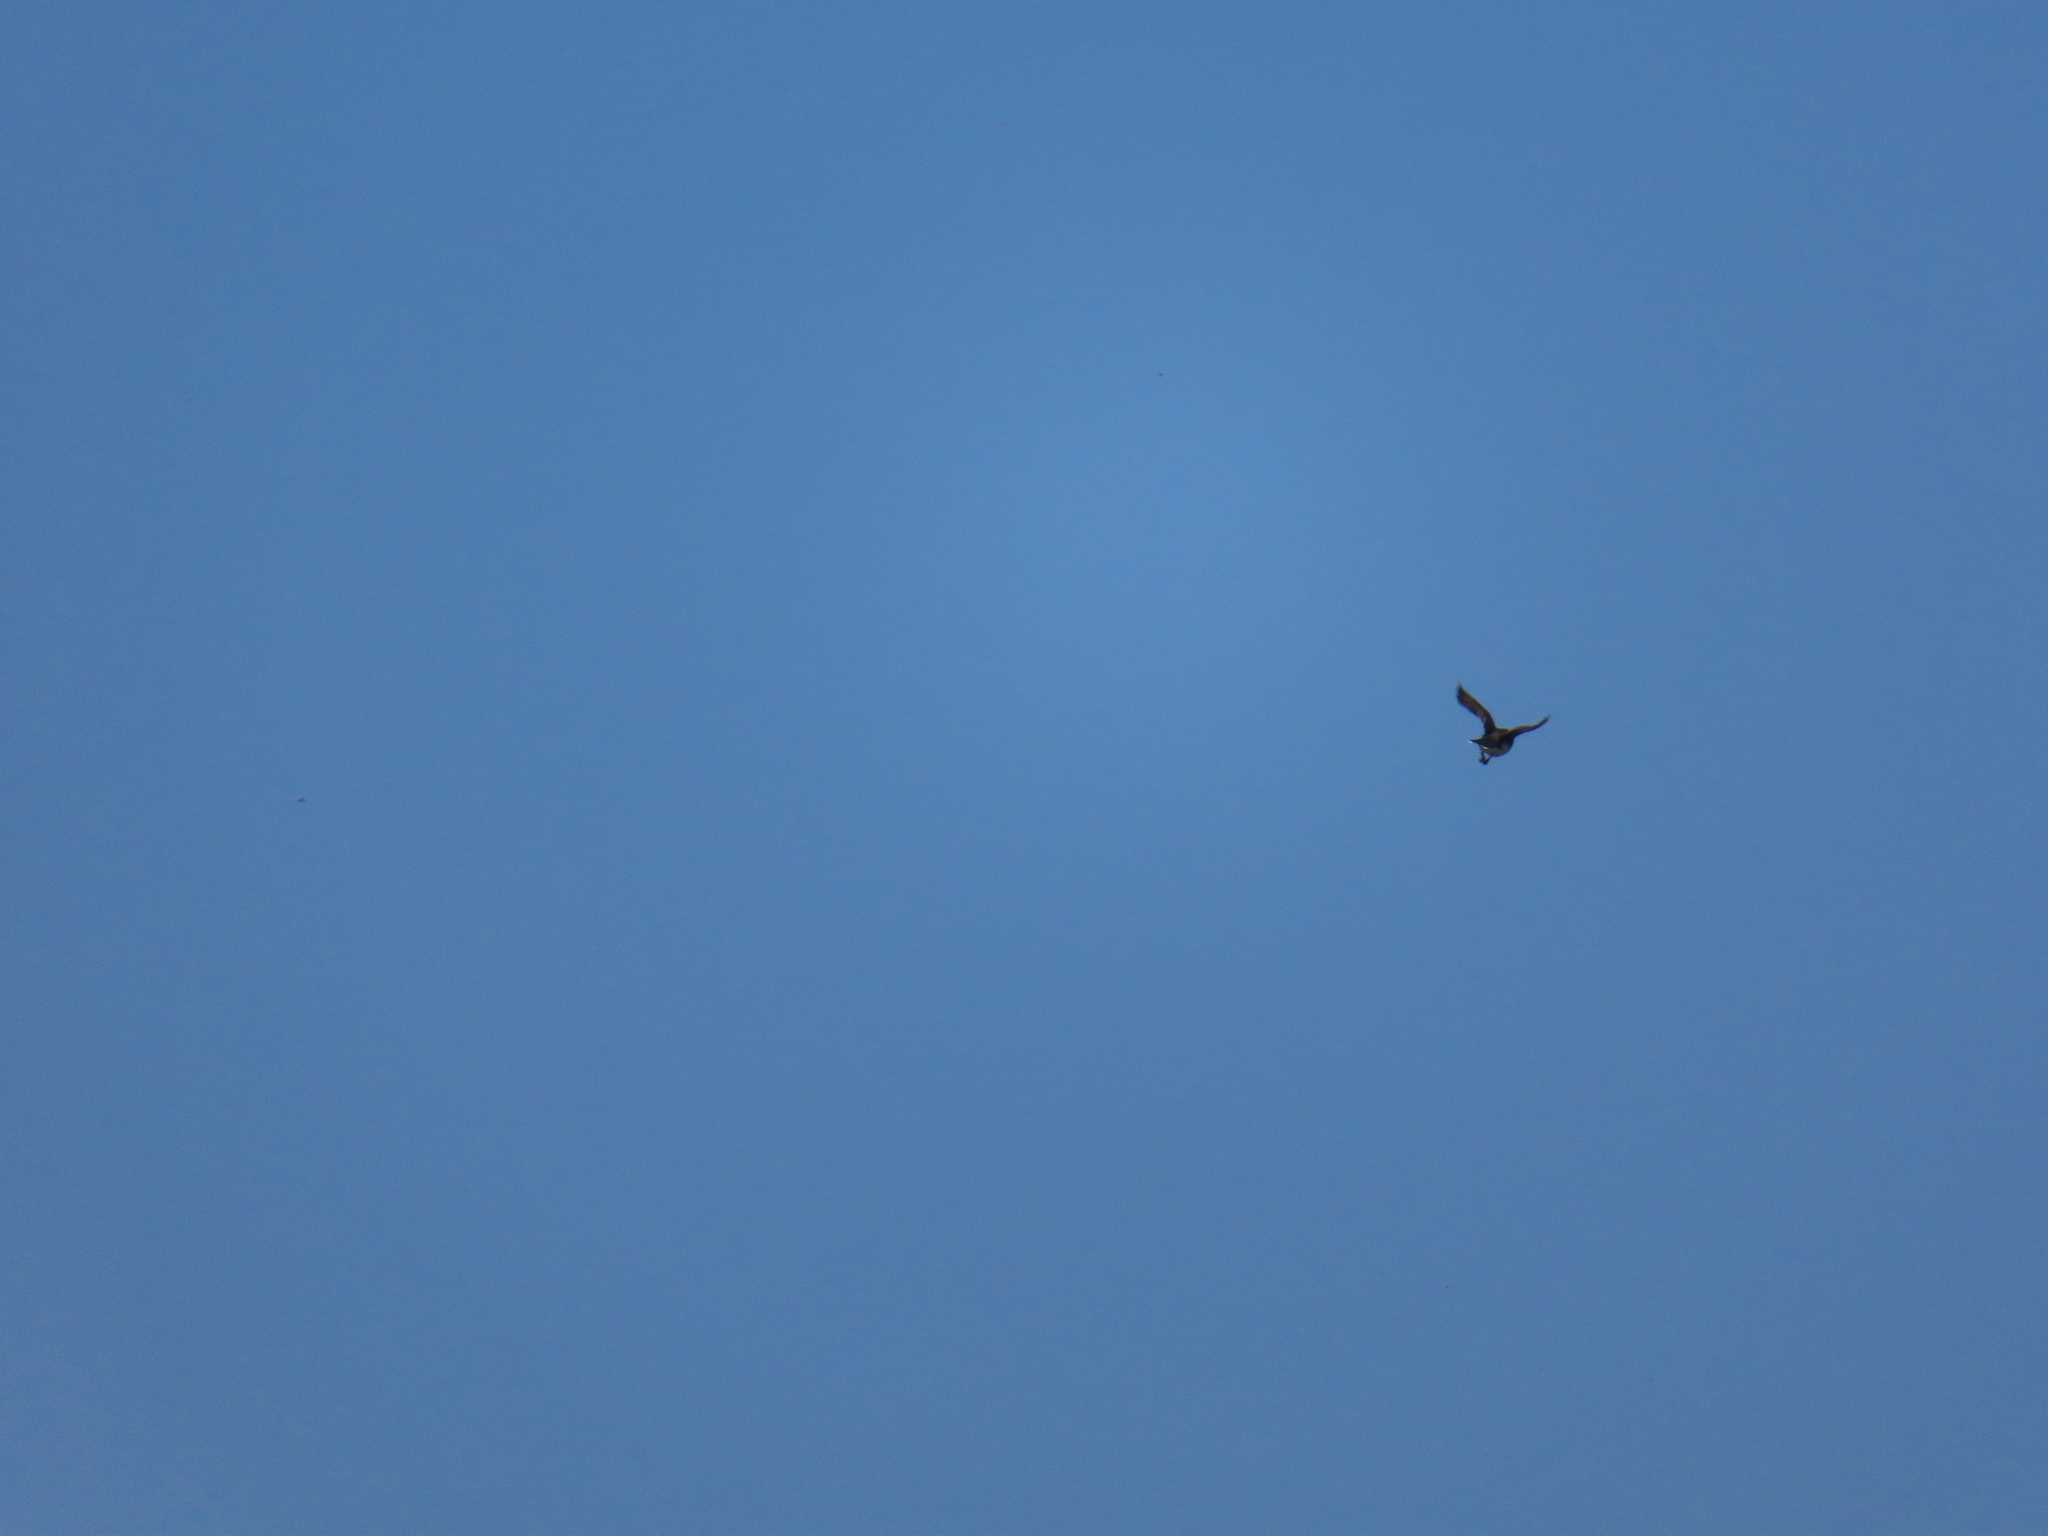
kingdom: Animalia
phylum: Chordata
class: Aves
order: Passeriformes
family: Tyrannidae
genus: Tyrannus
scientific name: Tyrannus tyrannus
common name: Eastern kingbird
